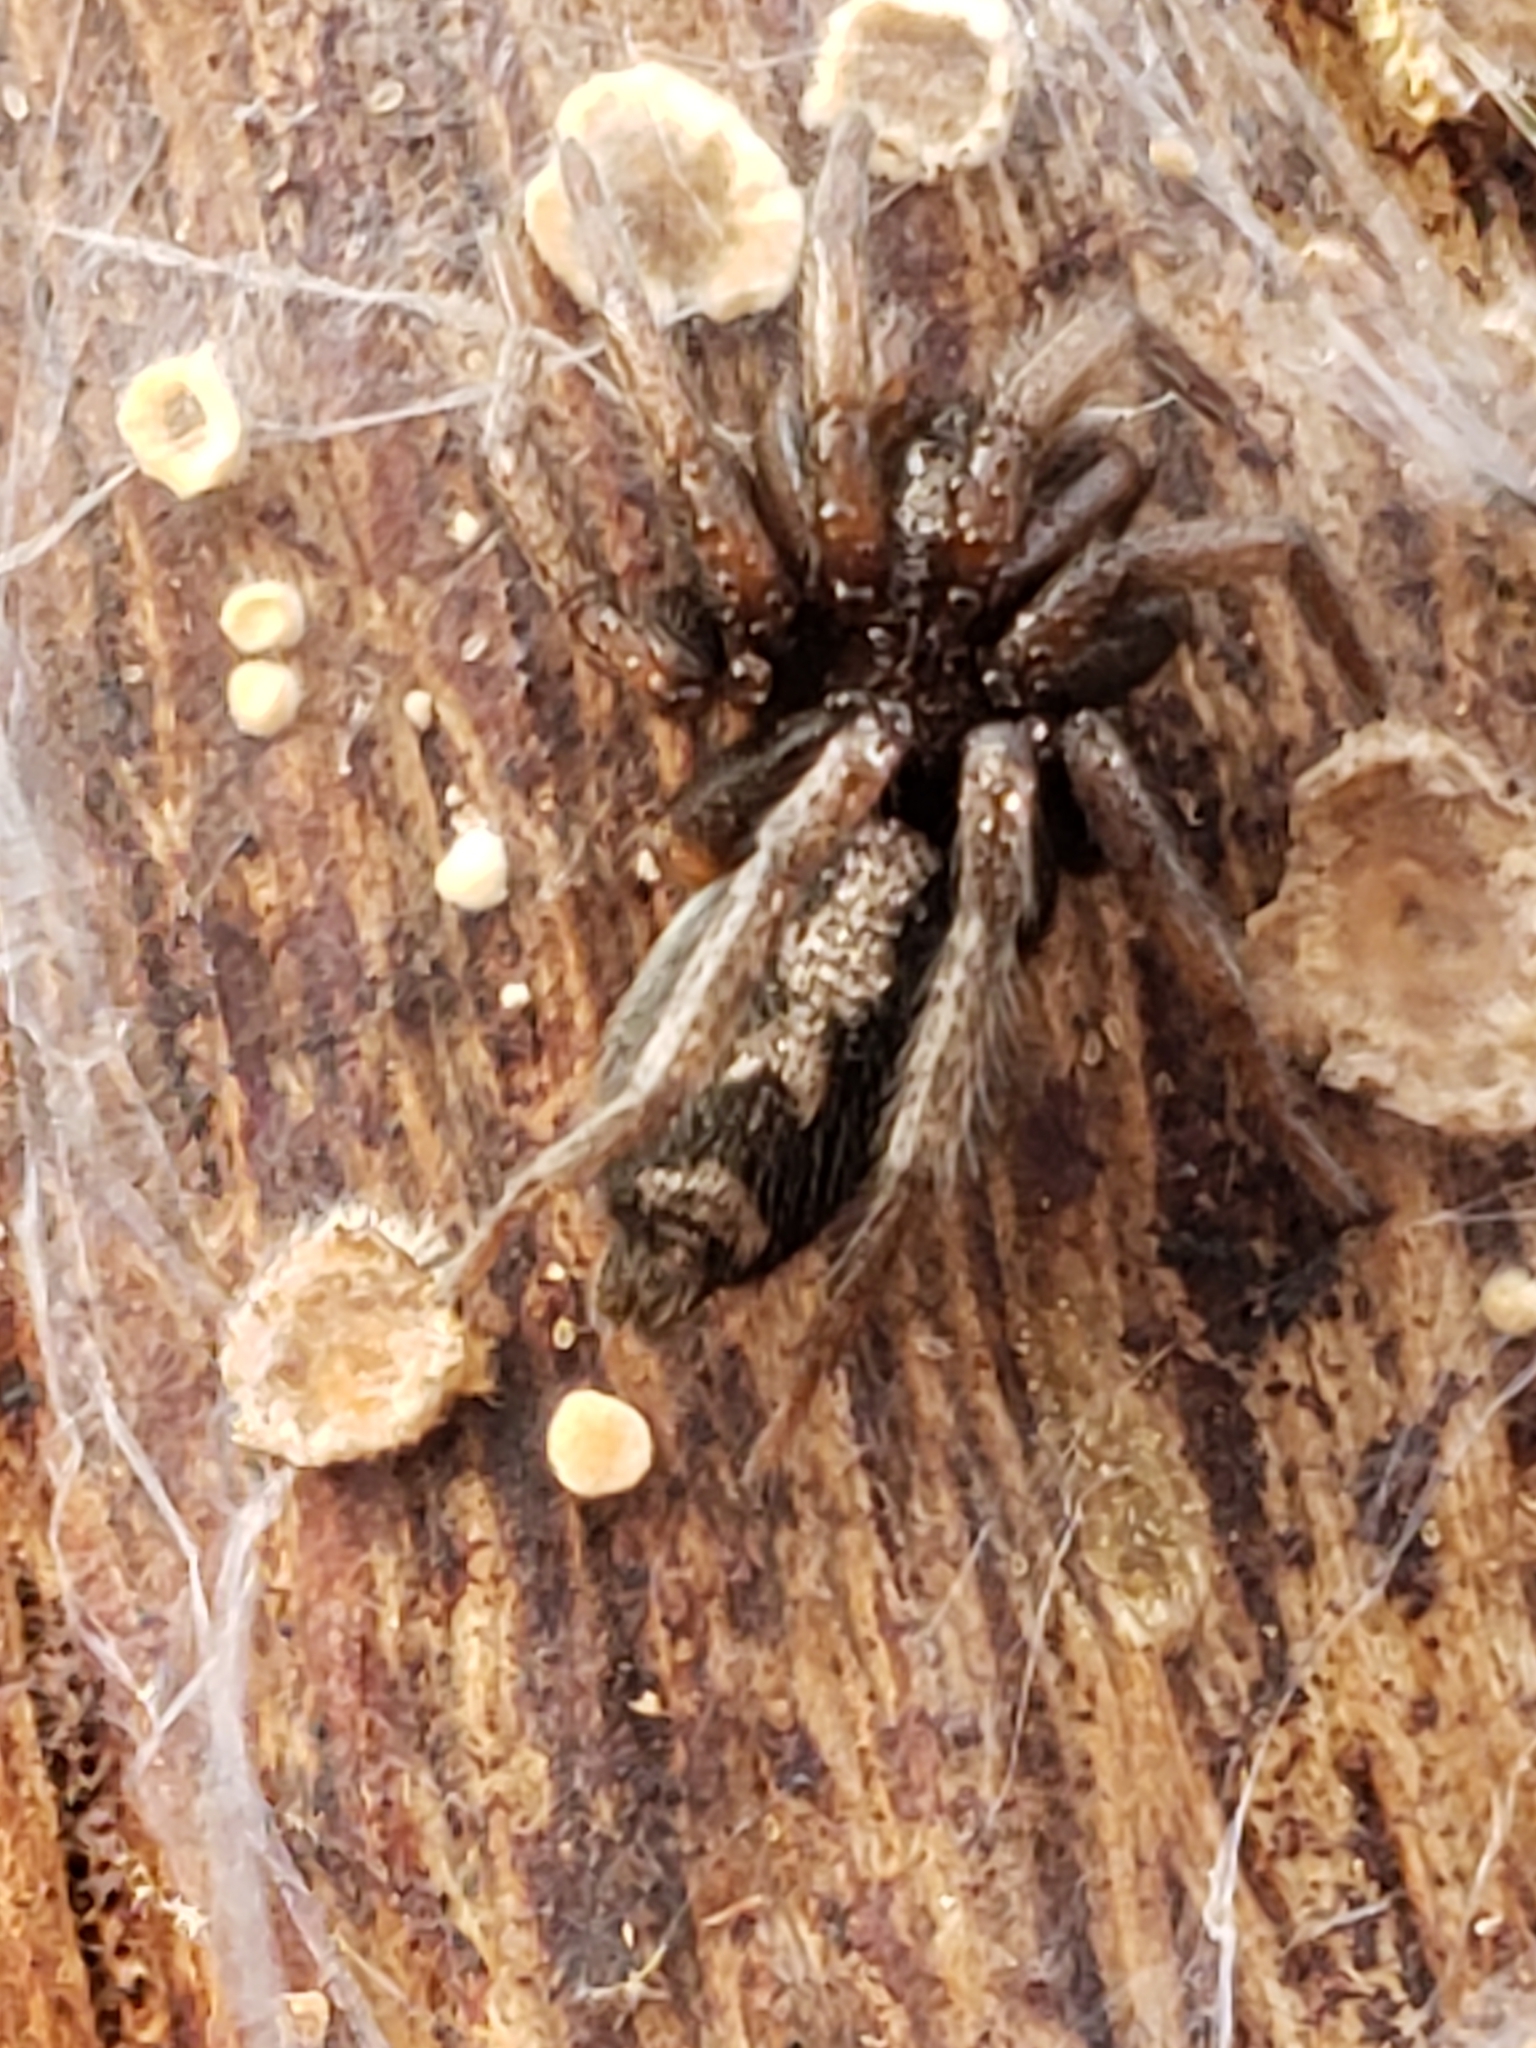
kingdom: Animalia
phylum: Arthropoda
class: Arachnida
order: Araneae
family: Gnaphosidae
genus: Herpyllus
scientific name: Herpyllus ecclesiasticus
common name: Eastern parson spider
